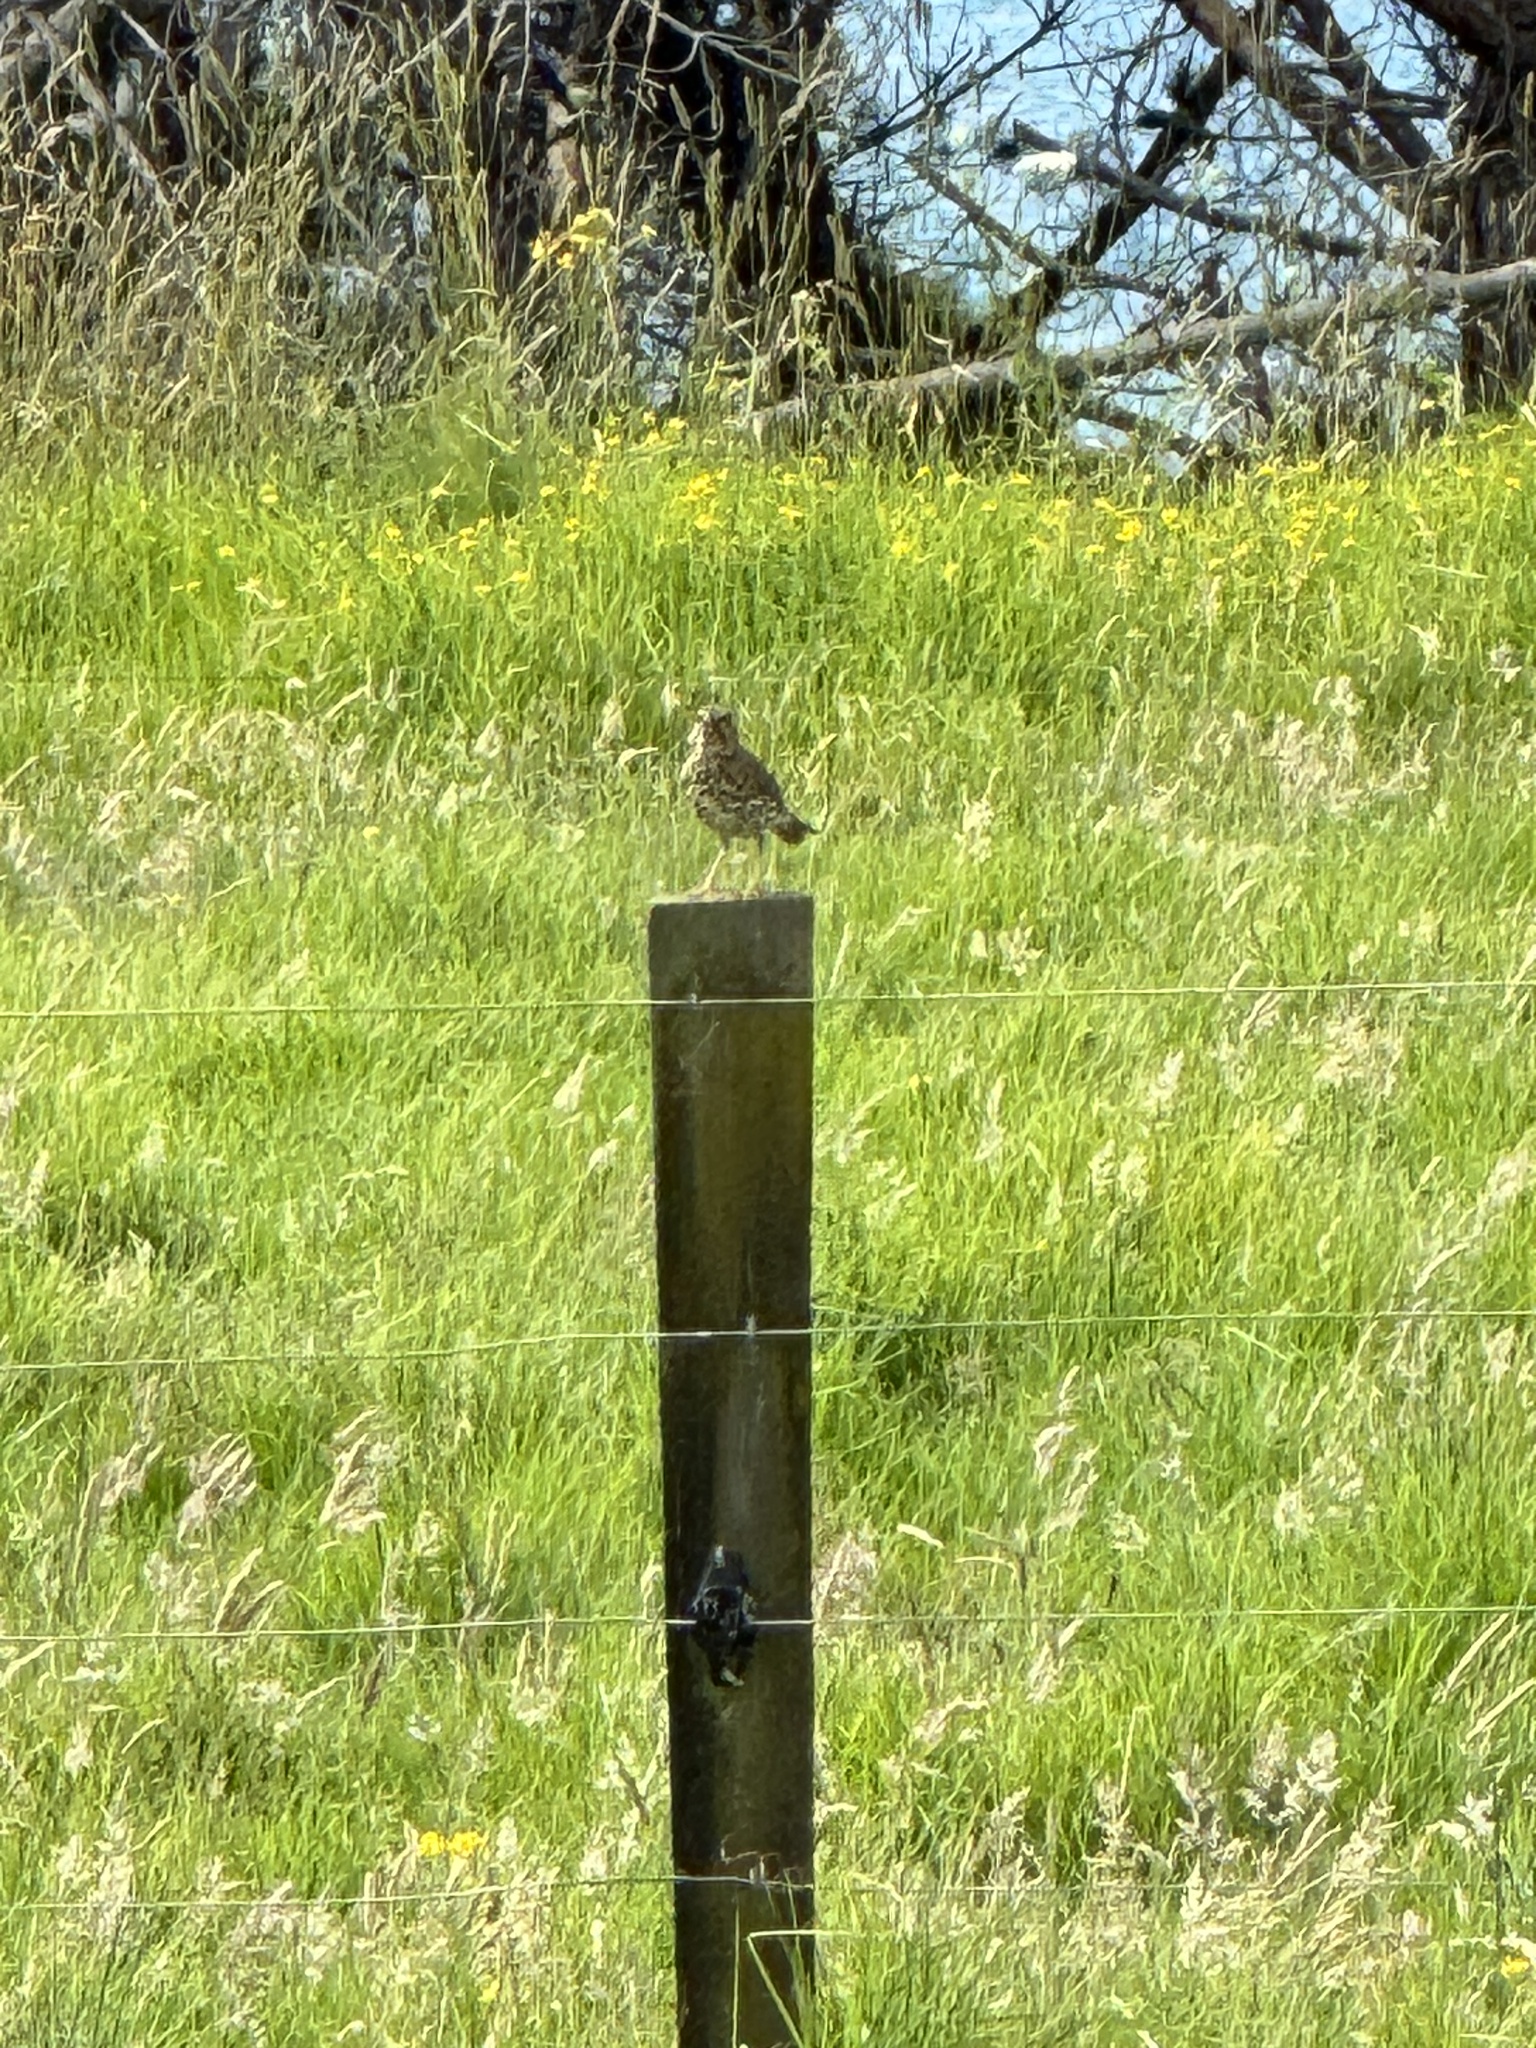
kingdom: Animalia
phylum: Chordata
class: Aves
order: Passeriformes
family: Turdidae
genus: Turdus
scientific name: Turdus philomelos
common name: Song thrush
